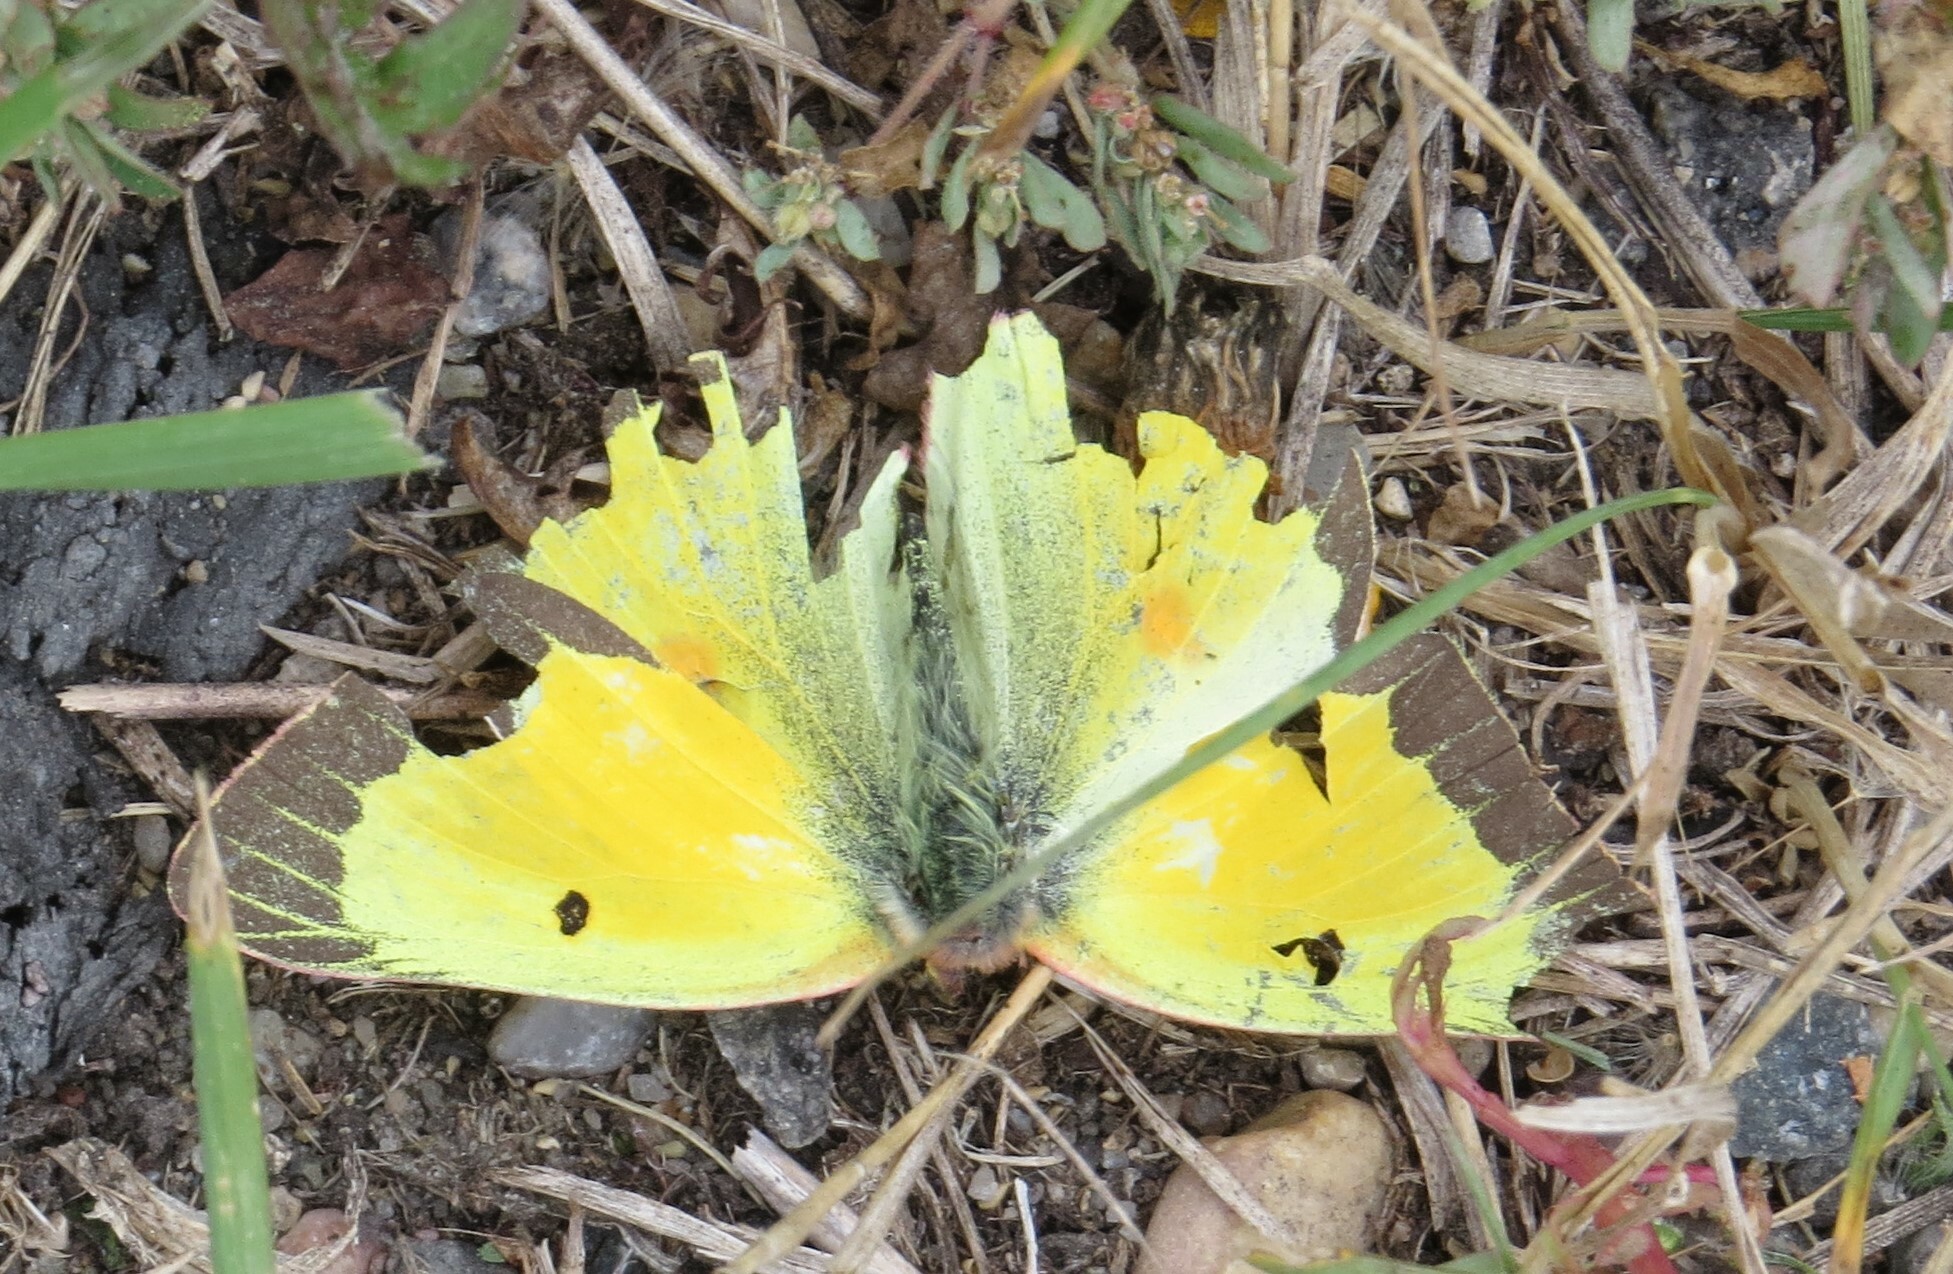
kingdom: Animalia
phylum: Arthropoda
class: Insecta
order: Lepidoptera
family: Pieridae
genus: Colias
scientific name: Colias eurytheme
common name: Alfalfa butterfly
